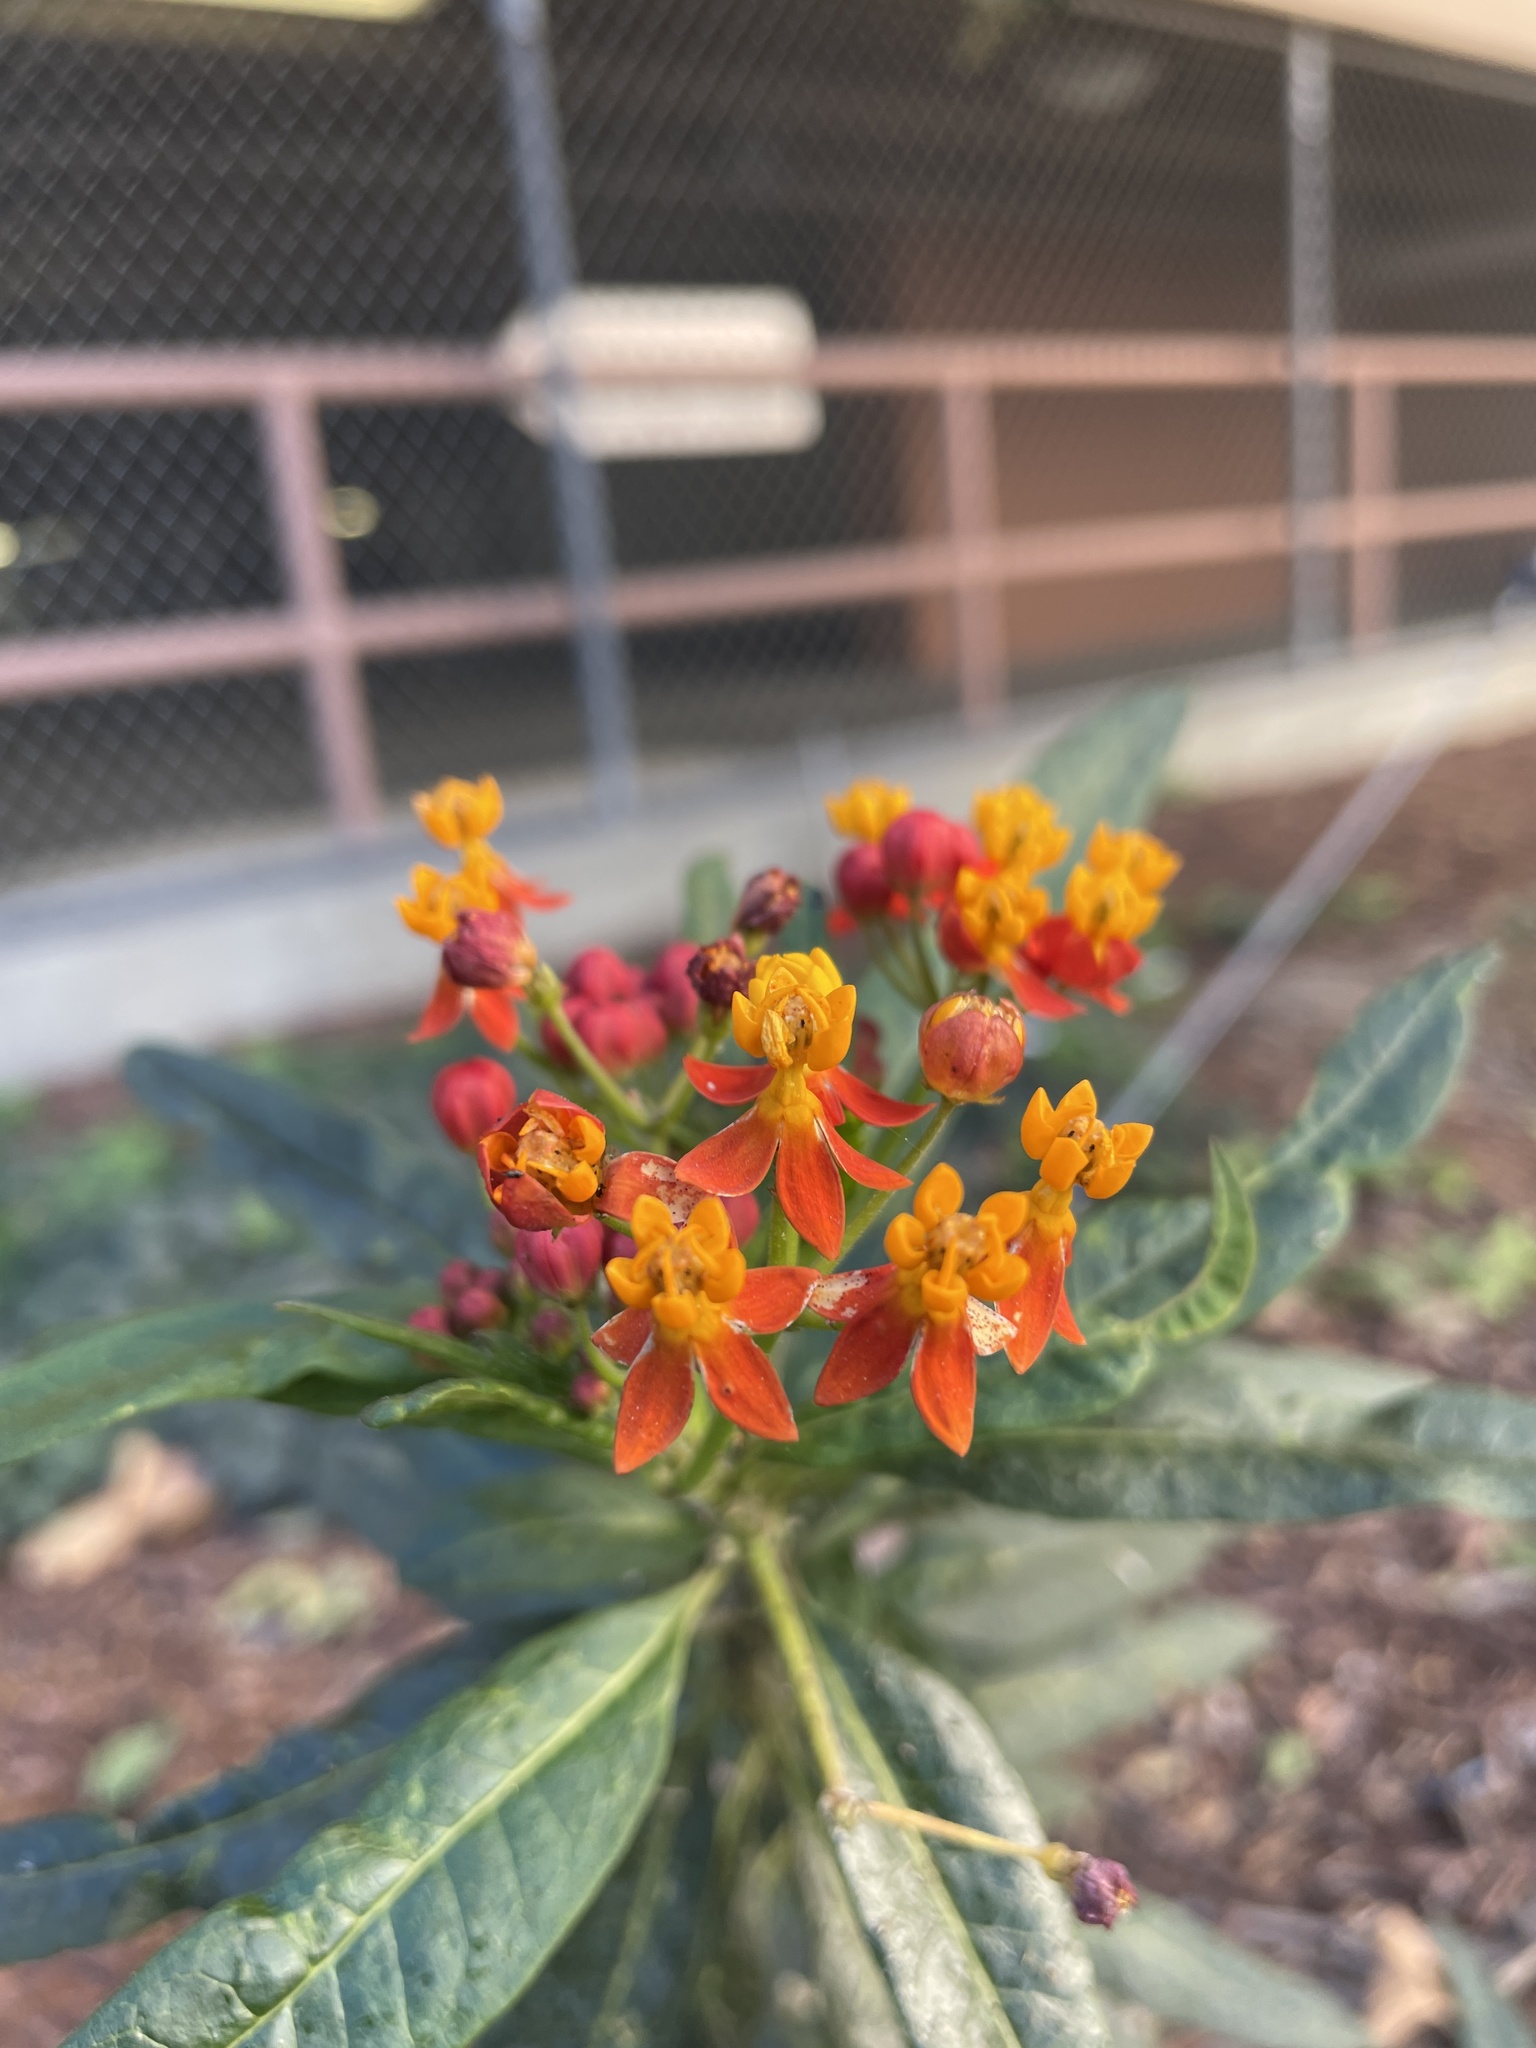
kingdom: Plantae
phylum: Tracheophyta
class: Magnoliopsida
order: Gentianales
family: Apocynaceae
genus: Asclepias
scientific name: Asclepias curassavica
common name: Bloodflower
